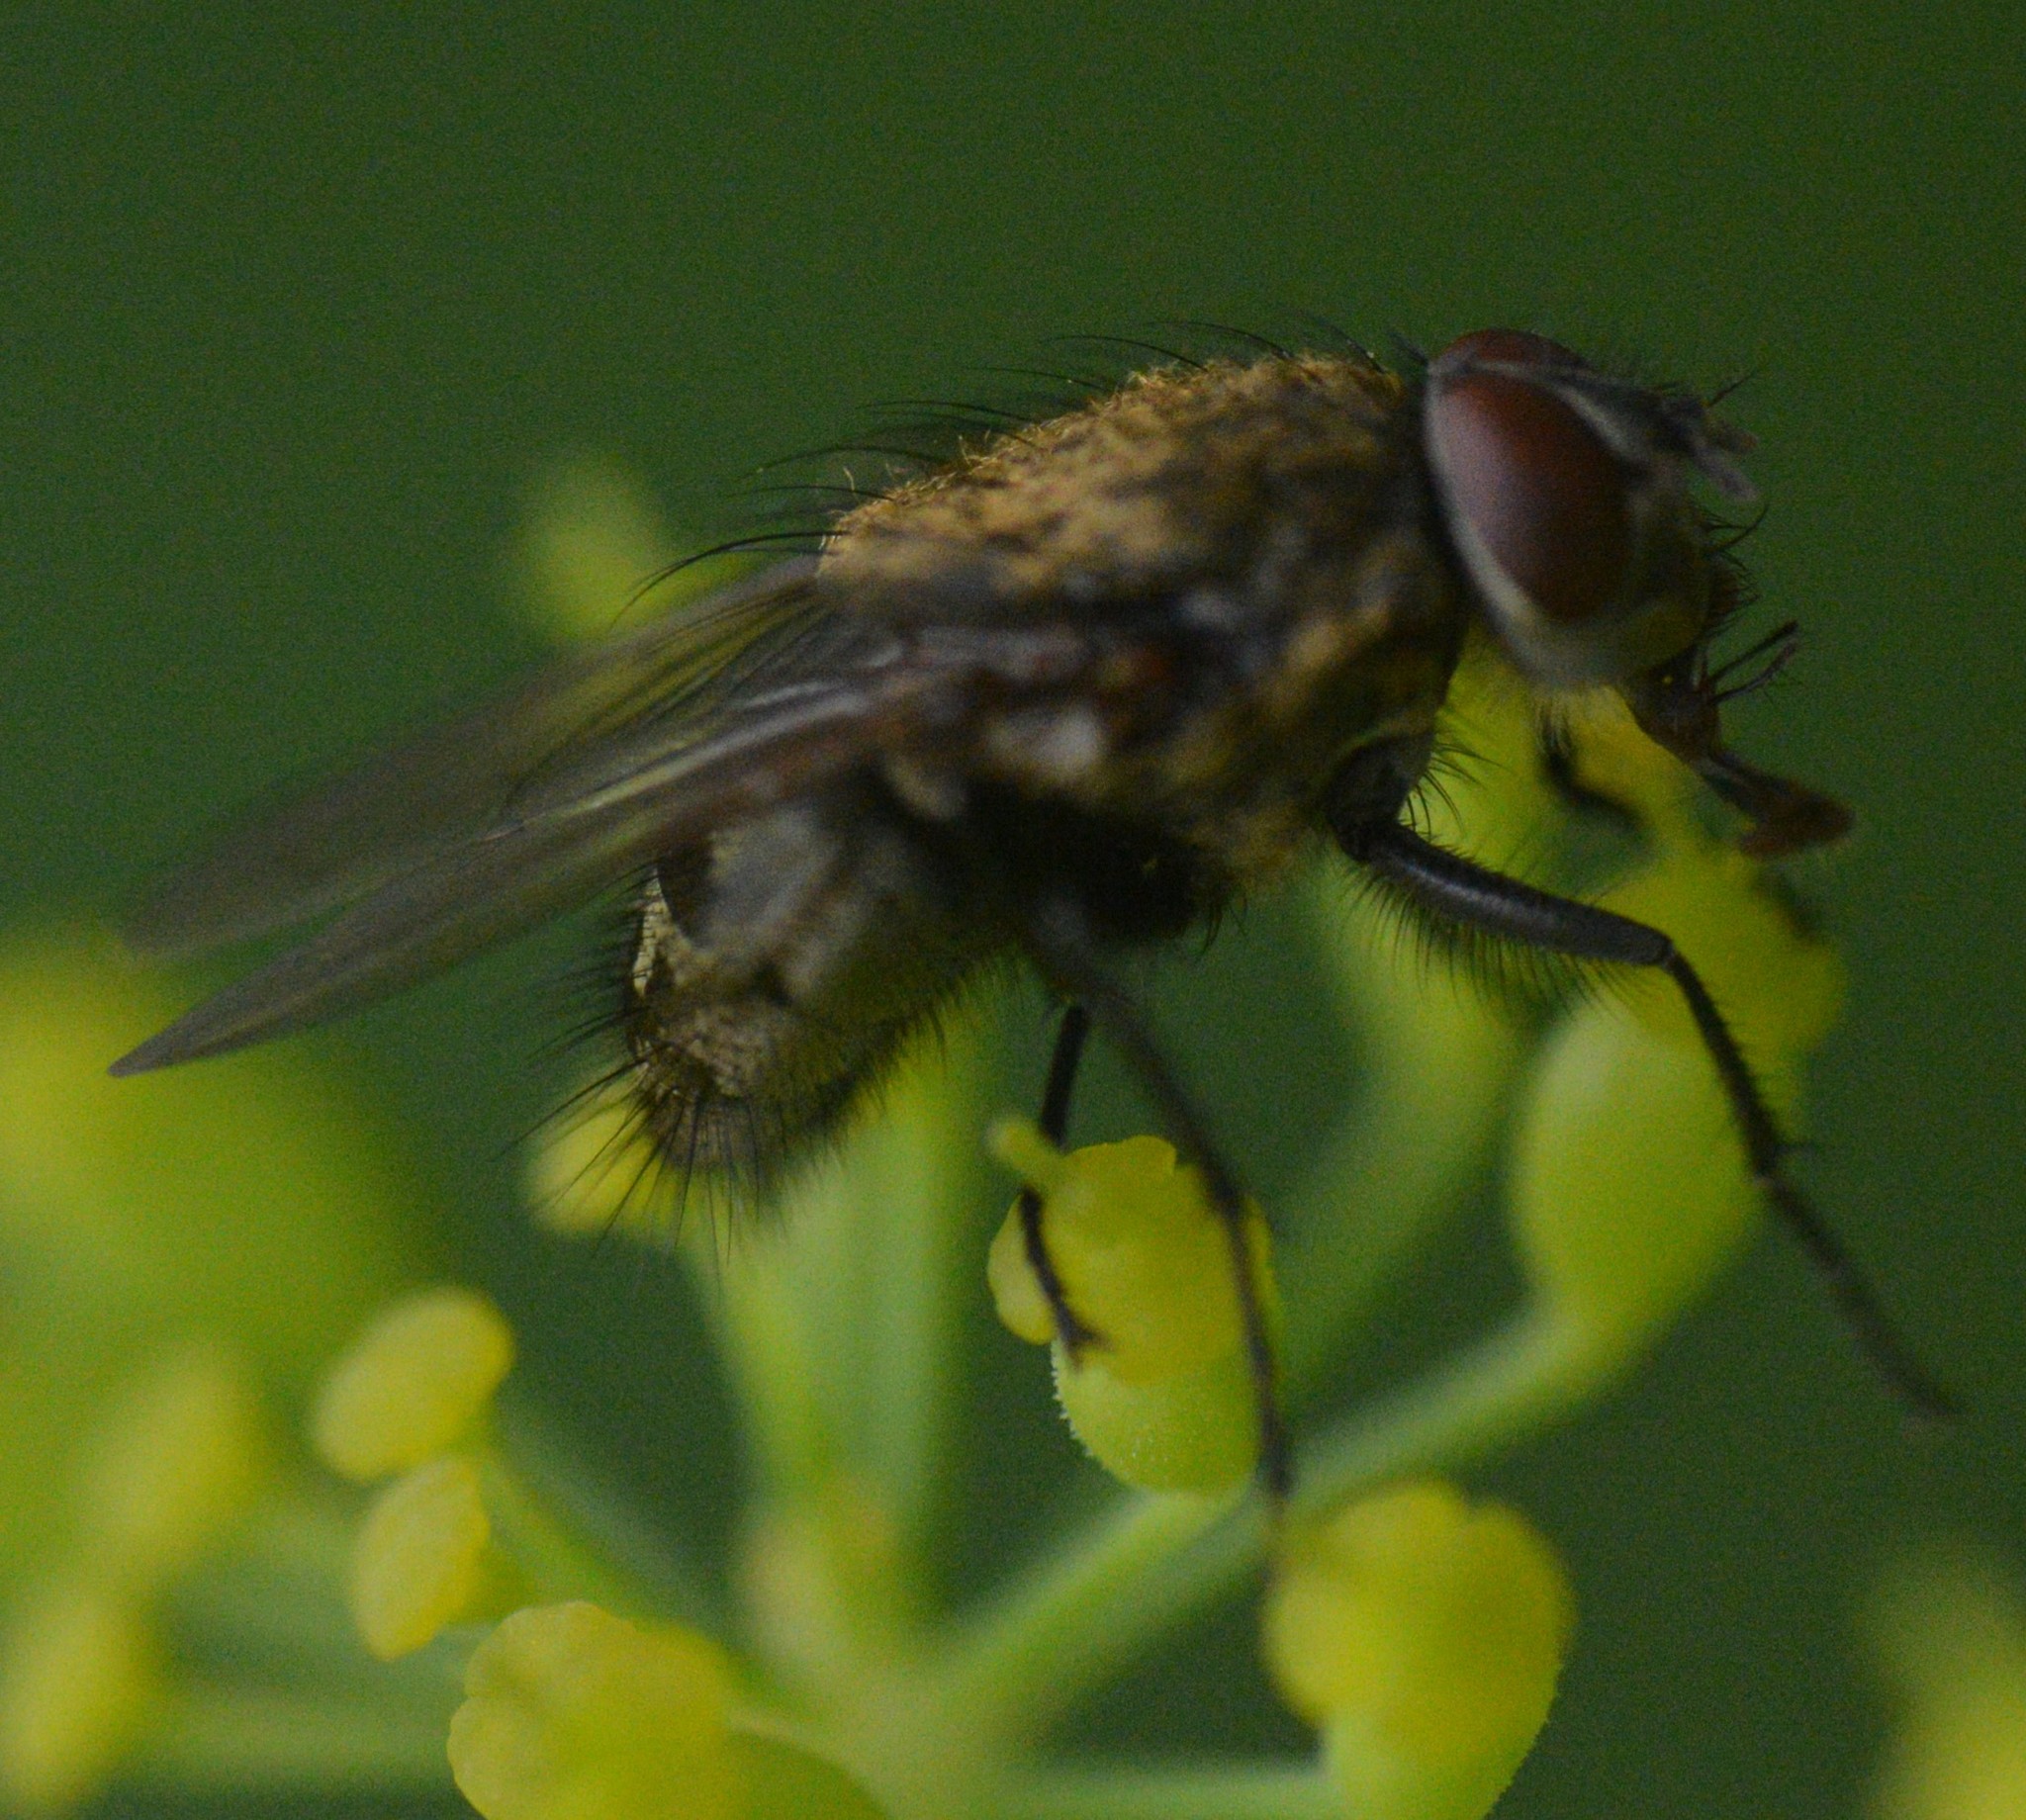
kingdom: Animalia
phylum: Arthropoda
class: Insecta
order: Diptera
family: Polleniidae
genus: Pollenia
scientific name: Pollenia
